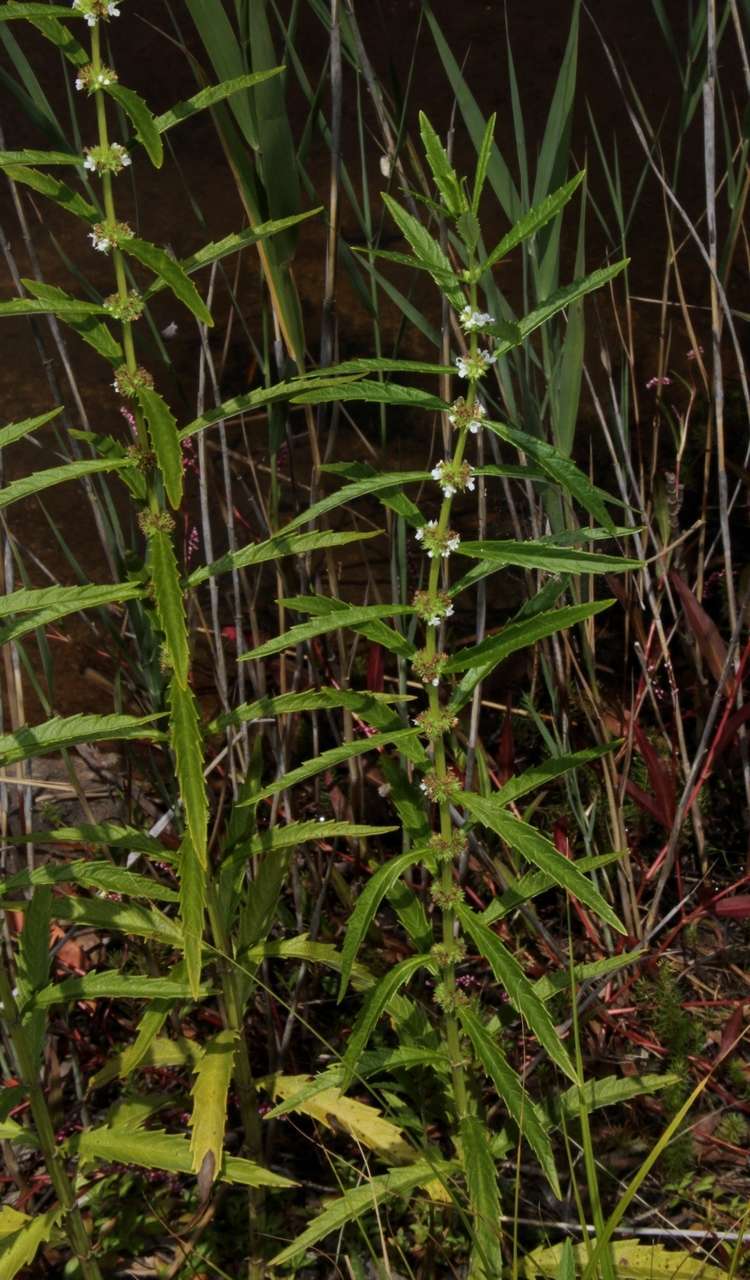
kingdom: Plantae
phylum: Tracheophyta
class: Magnoliopsida
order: Lamiales
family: Lamiaceae
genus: Lycopus
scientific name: Lycopus australis
